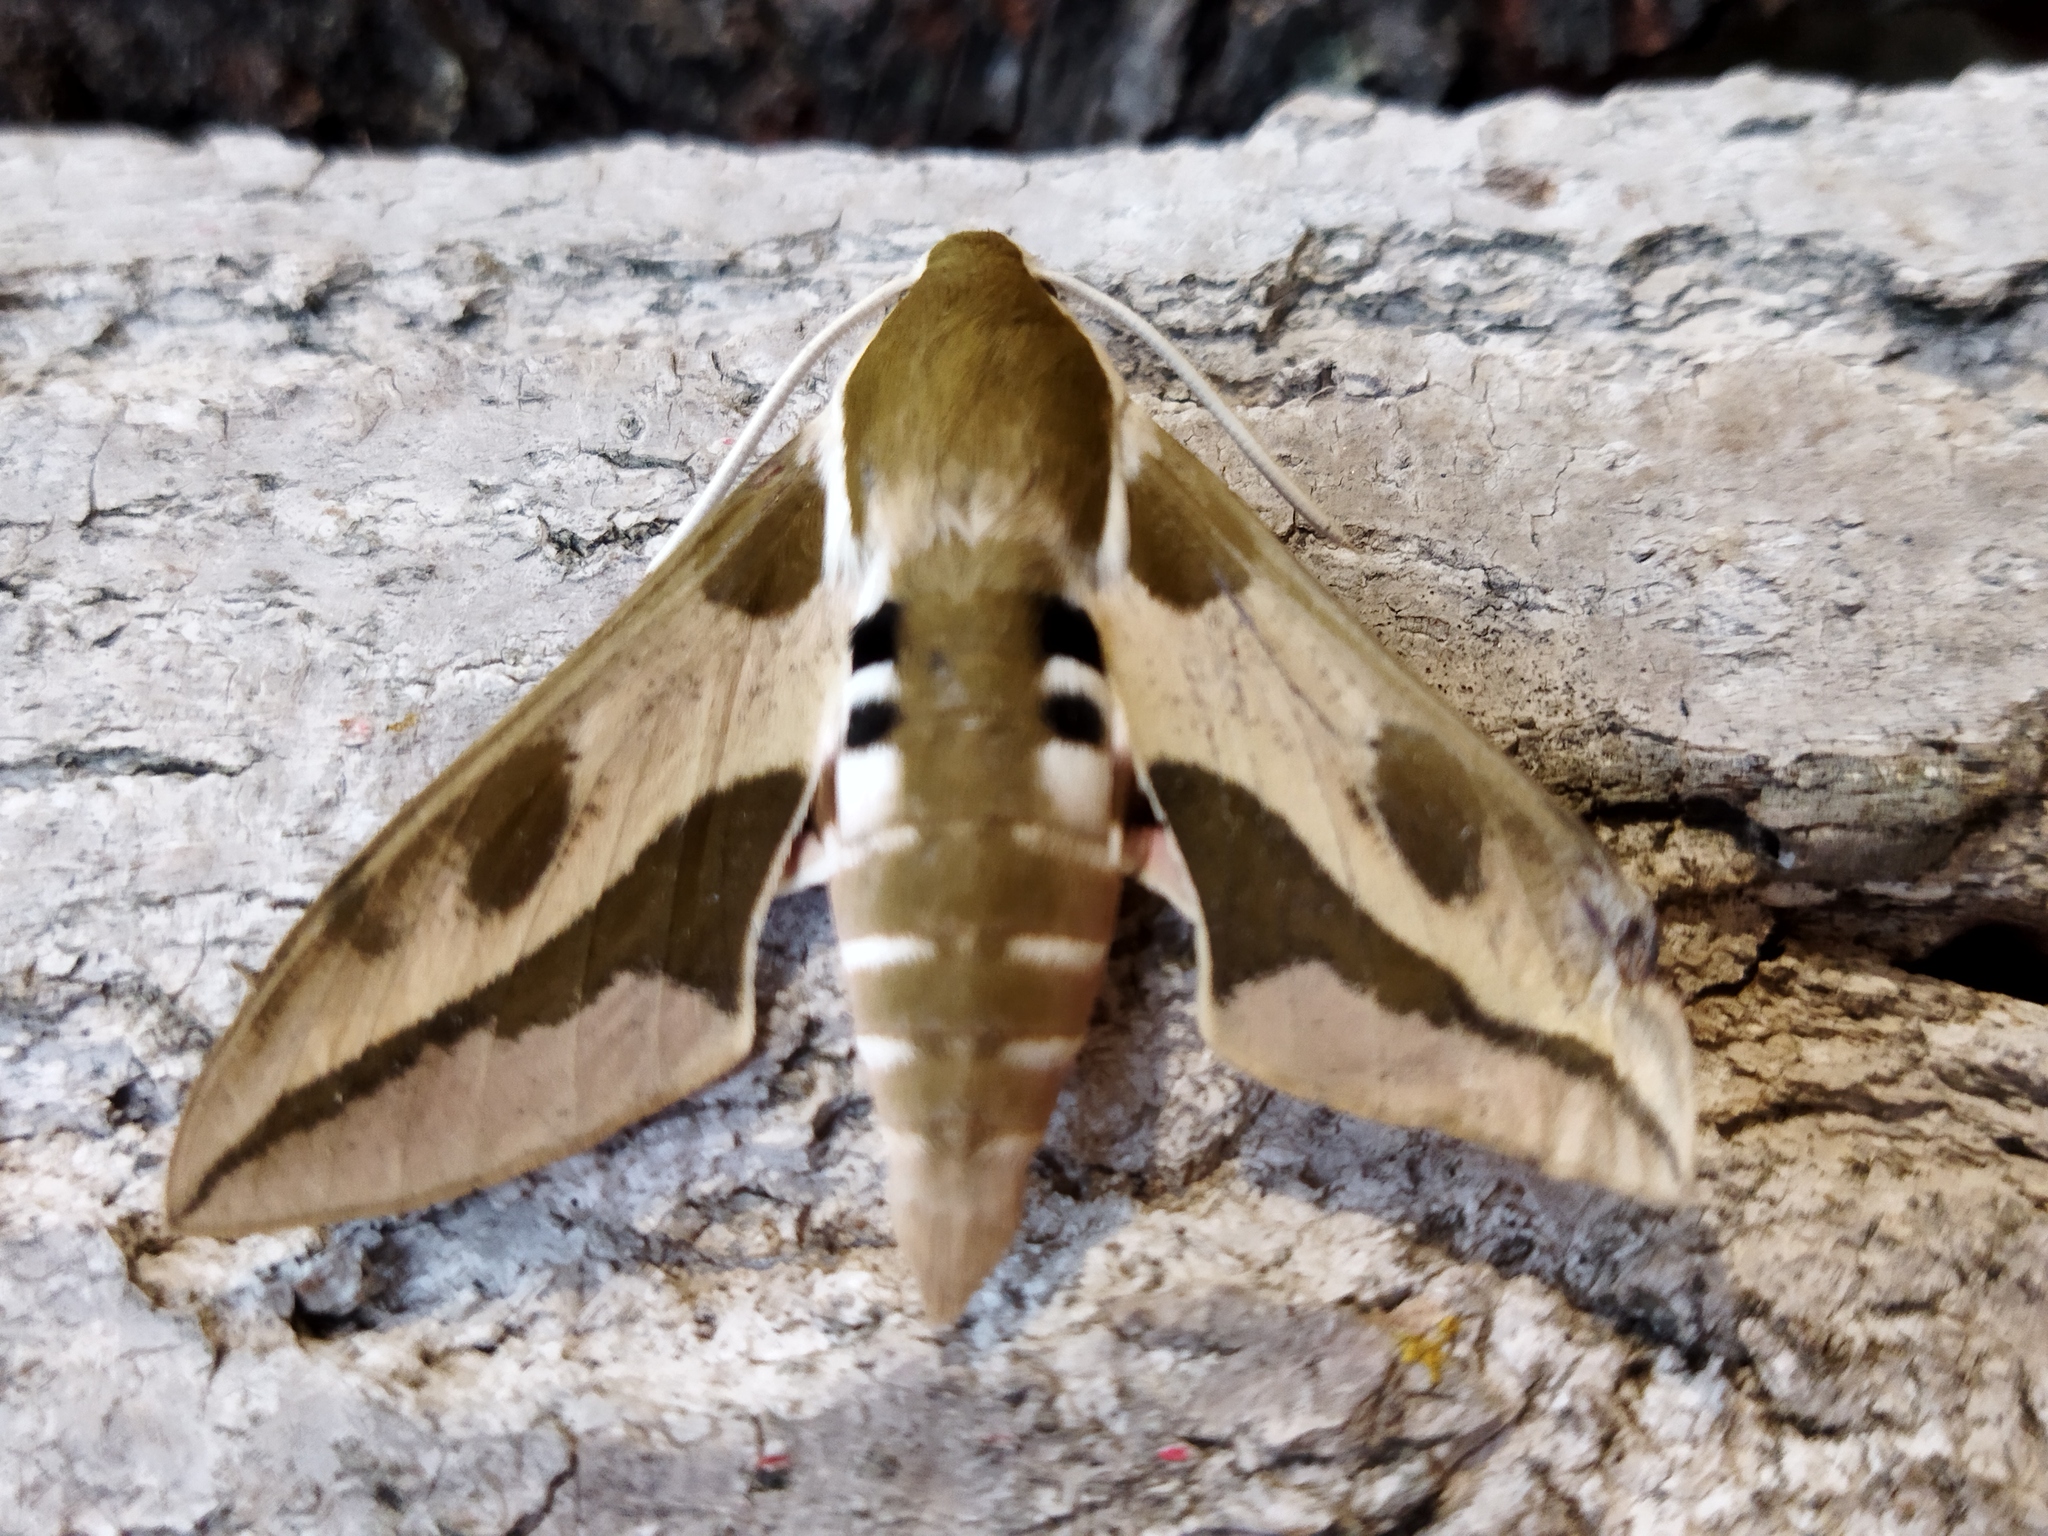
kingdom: Animalia
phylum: Arthropoda
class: Insecta
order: Lepidoptera
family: Sphingidae
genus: Hyles
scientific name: Hyles euphorbiae
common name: Spurge hawk-moth
